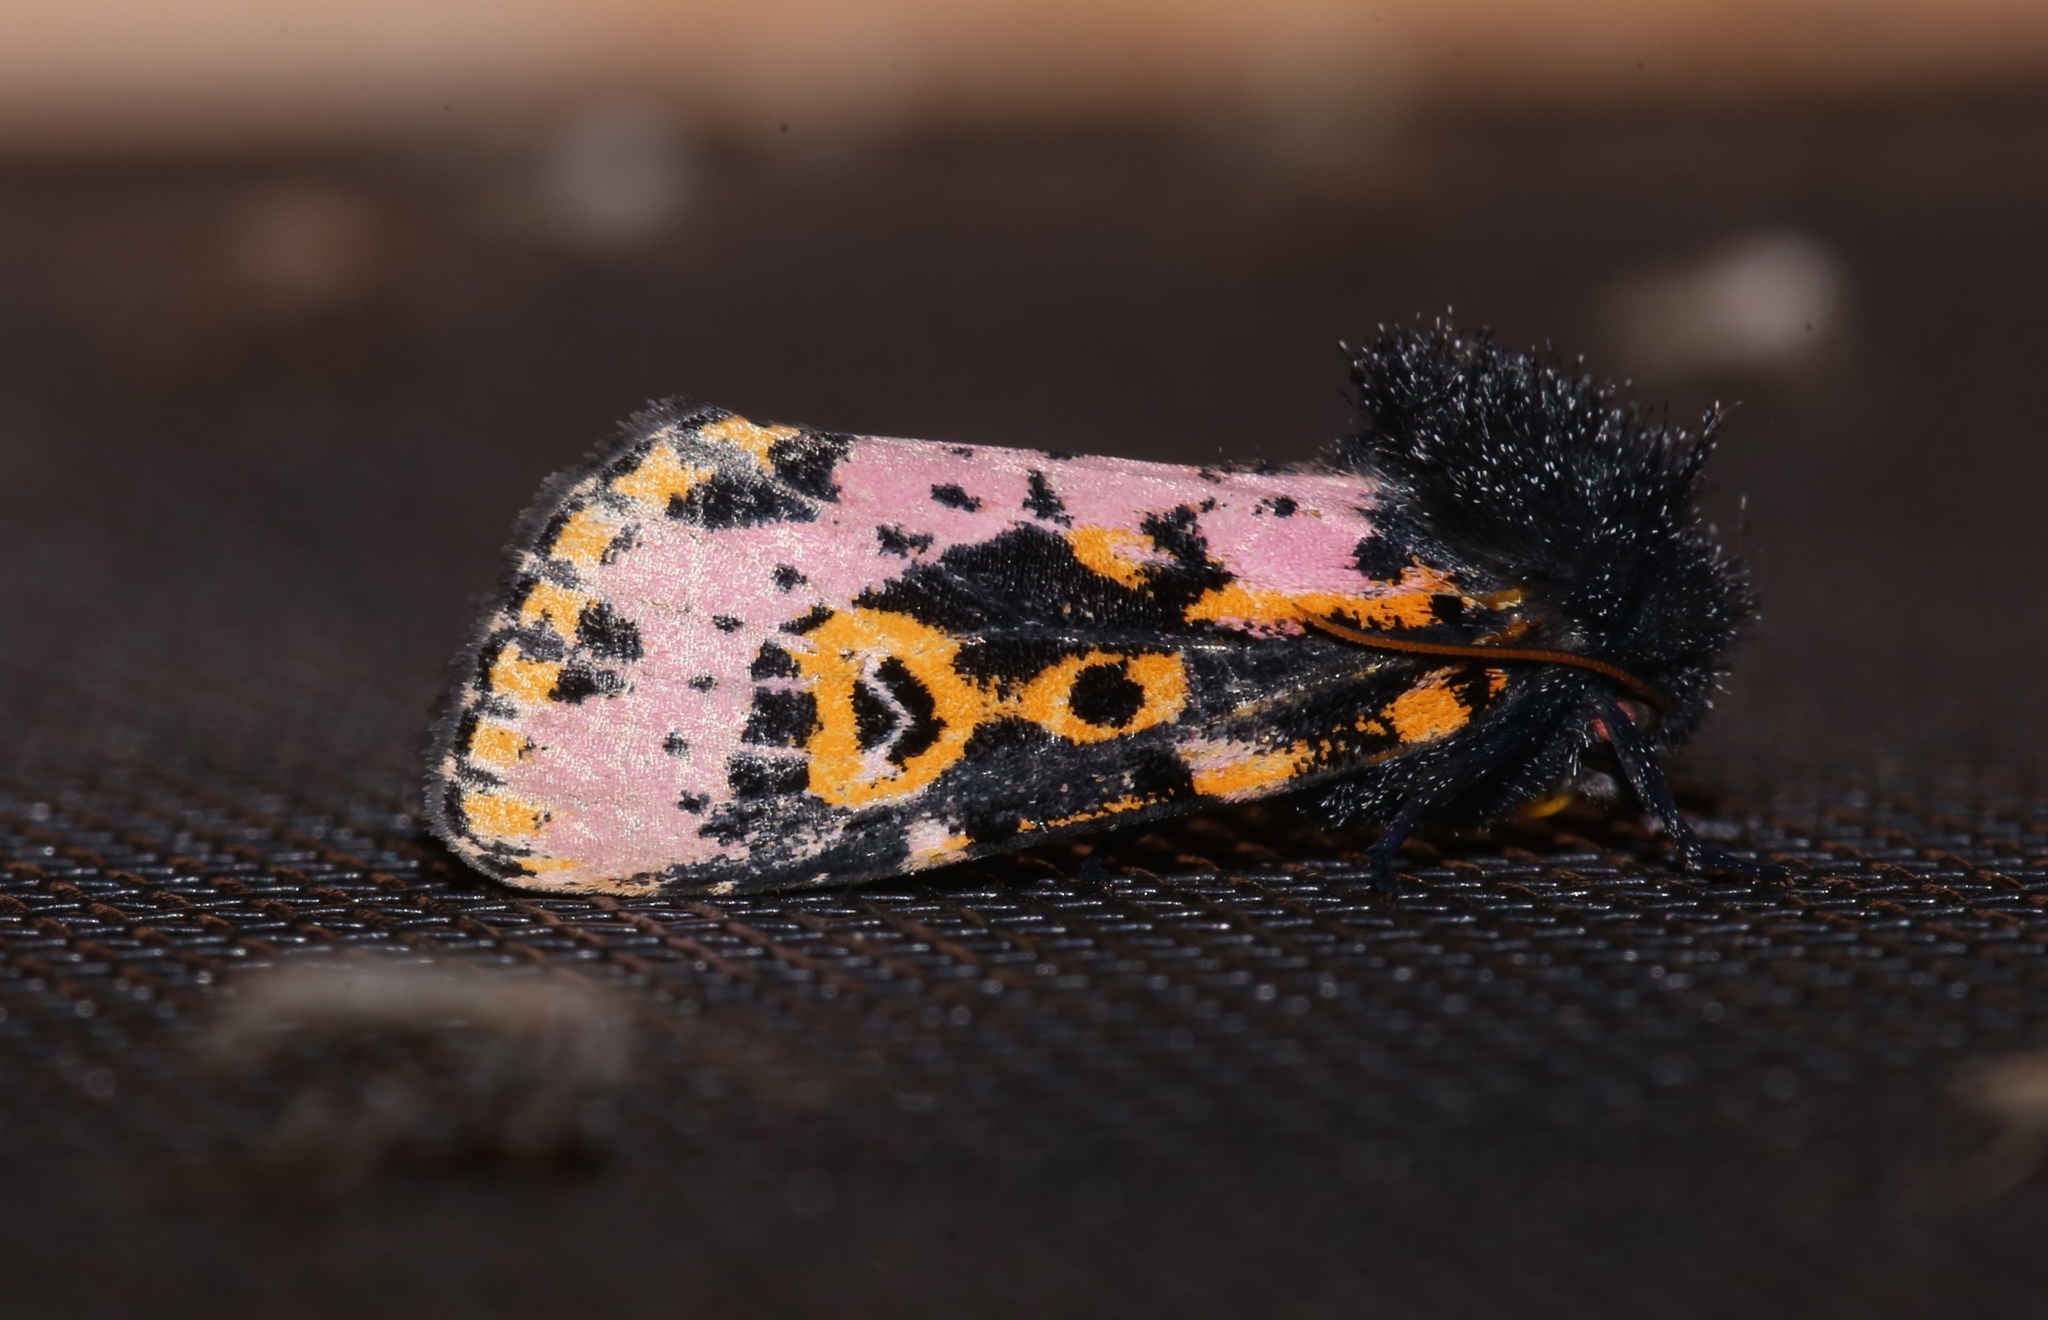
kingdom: Animalia
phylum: Arthropoda
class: Insecta
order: Lepidoptera
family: Noctuidae
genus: Xanthopastis
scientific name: Xanthopastis regnatrix
